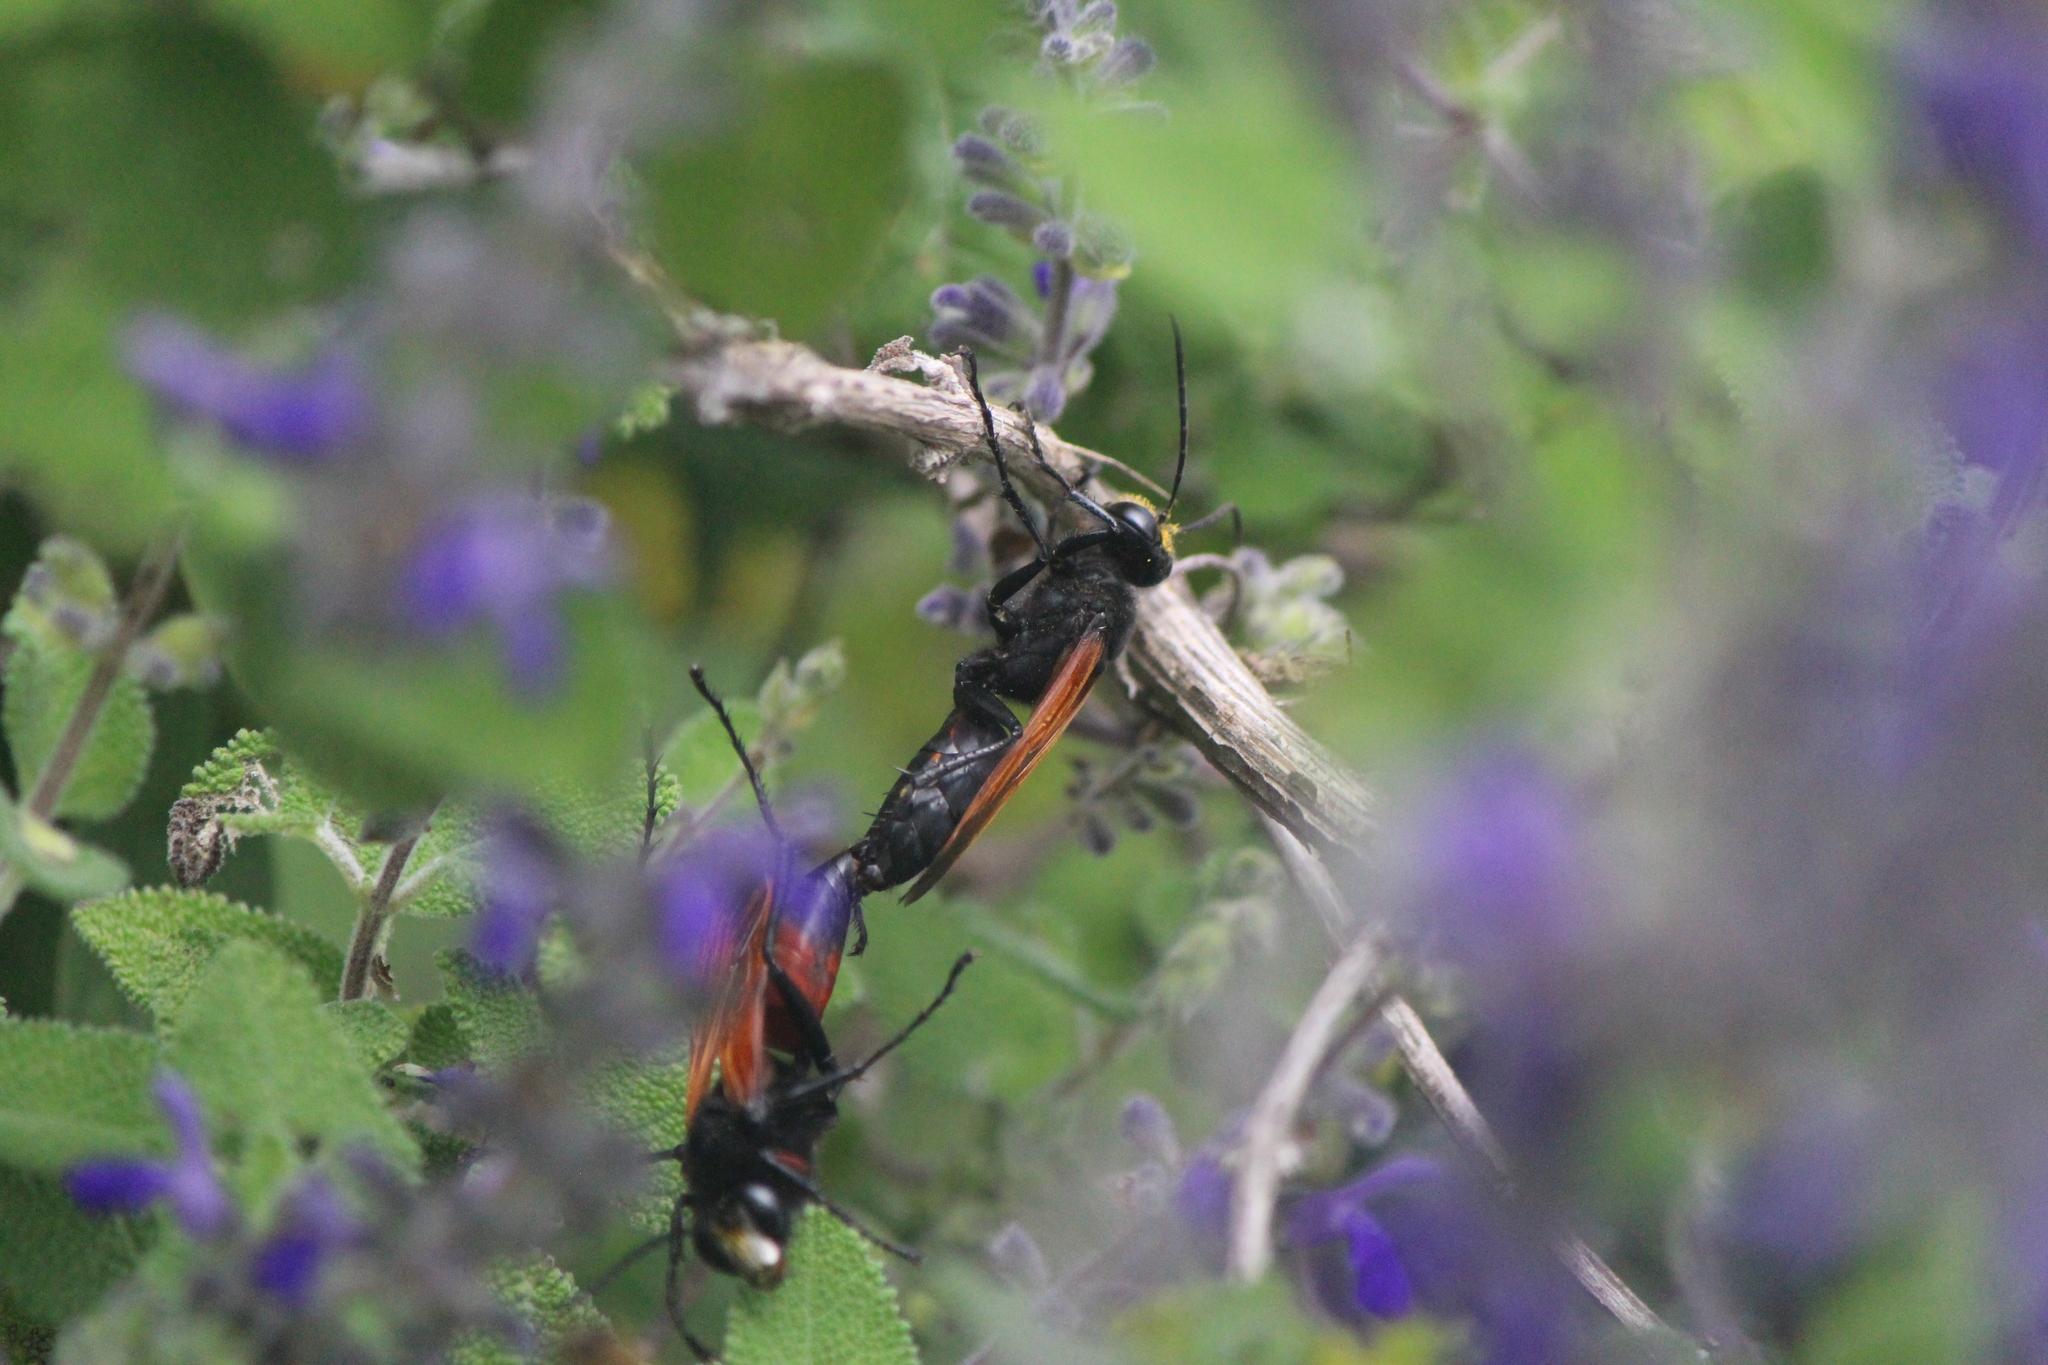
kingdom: Animalia
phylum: Arthropoda
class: Insecta
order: Hymenoptera
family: Sphecidae
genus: Sphex
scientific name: Sphex tepanecus
